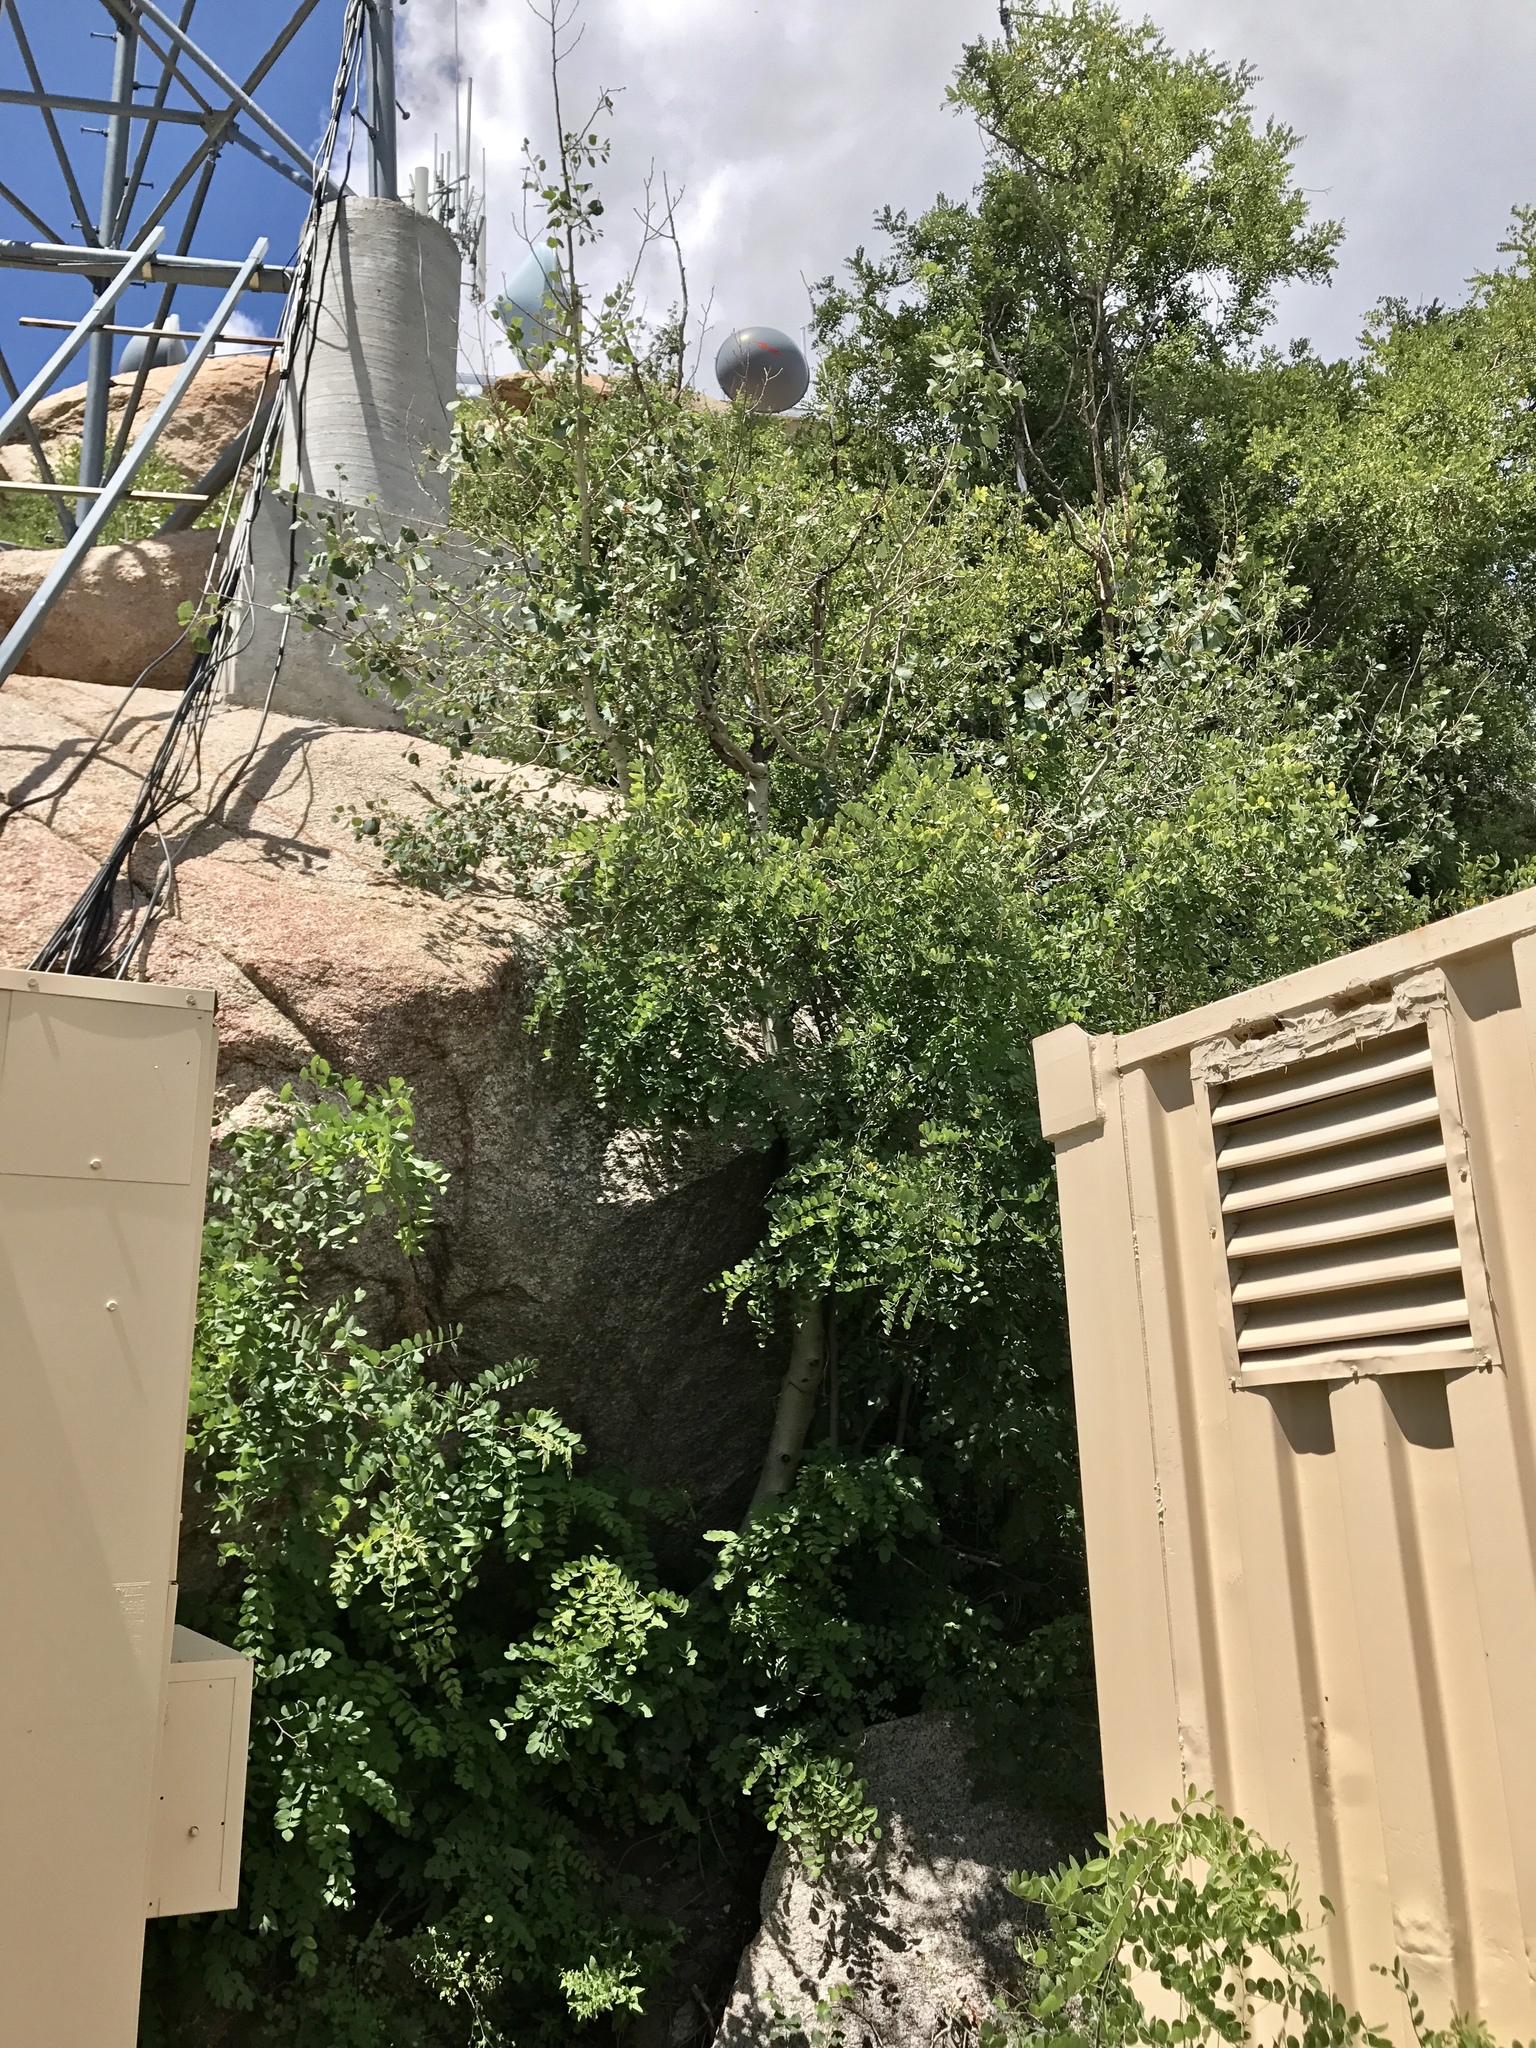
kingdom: Plantae
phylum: Tracheophyta
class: Magnoliopsida
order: Fabales
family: Fabaceae
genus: Robinia
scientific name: Robinia neomexicana
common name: New mexico locust
